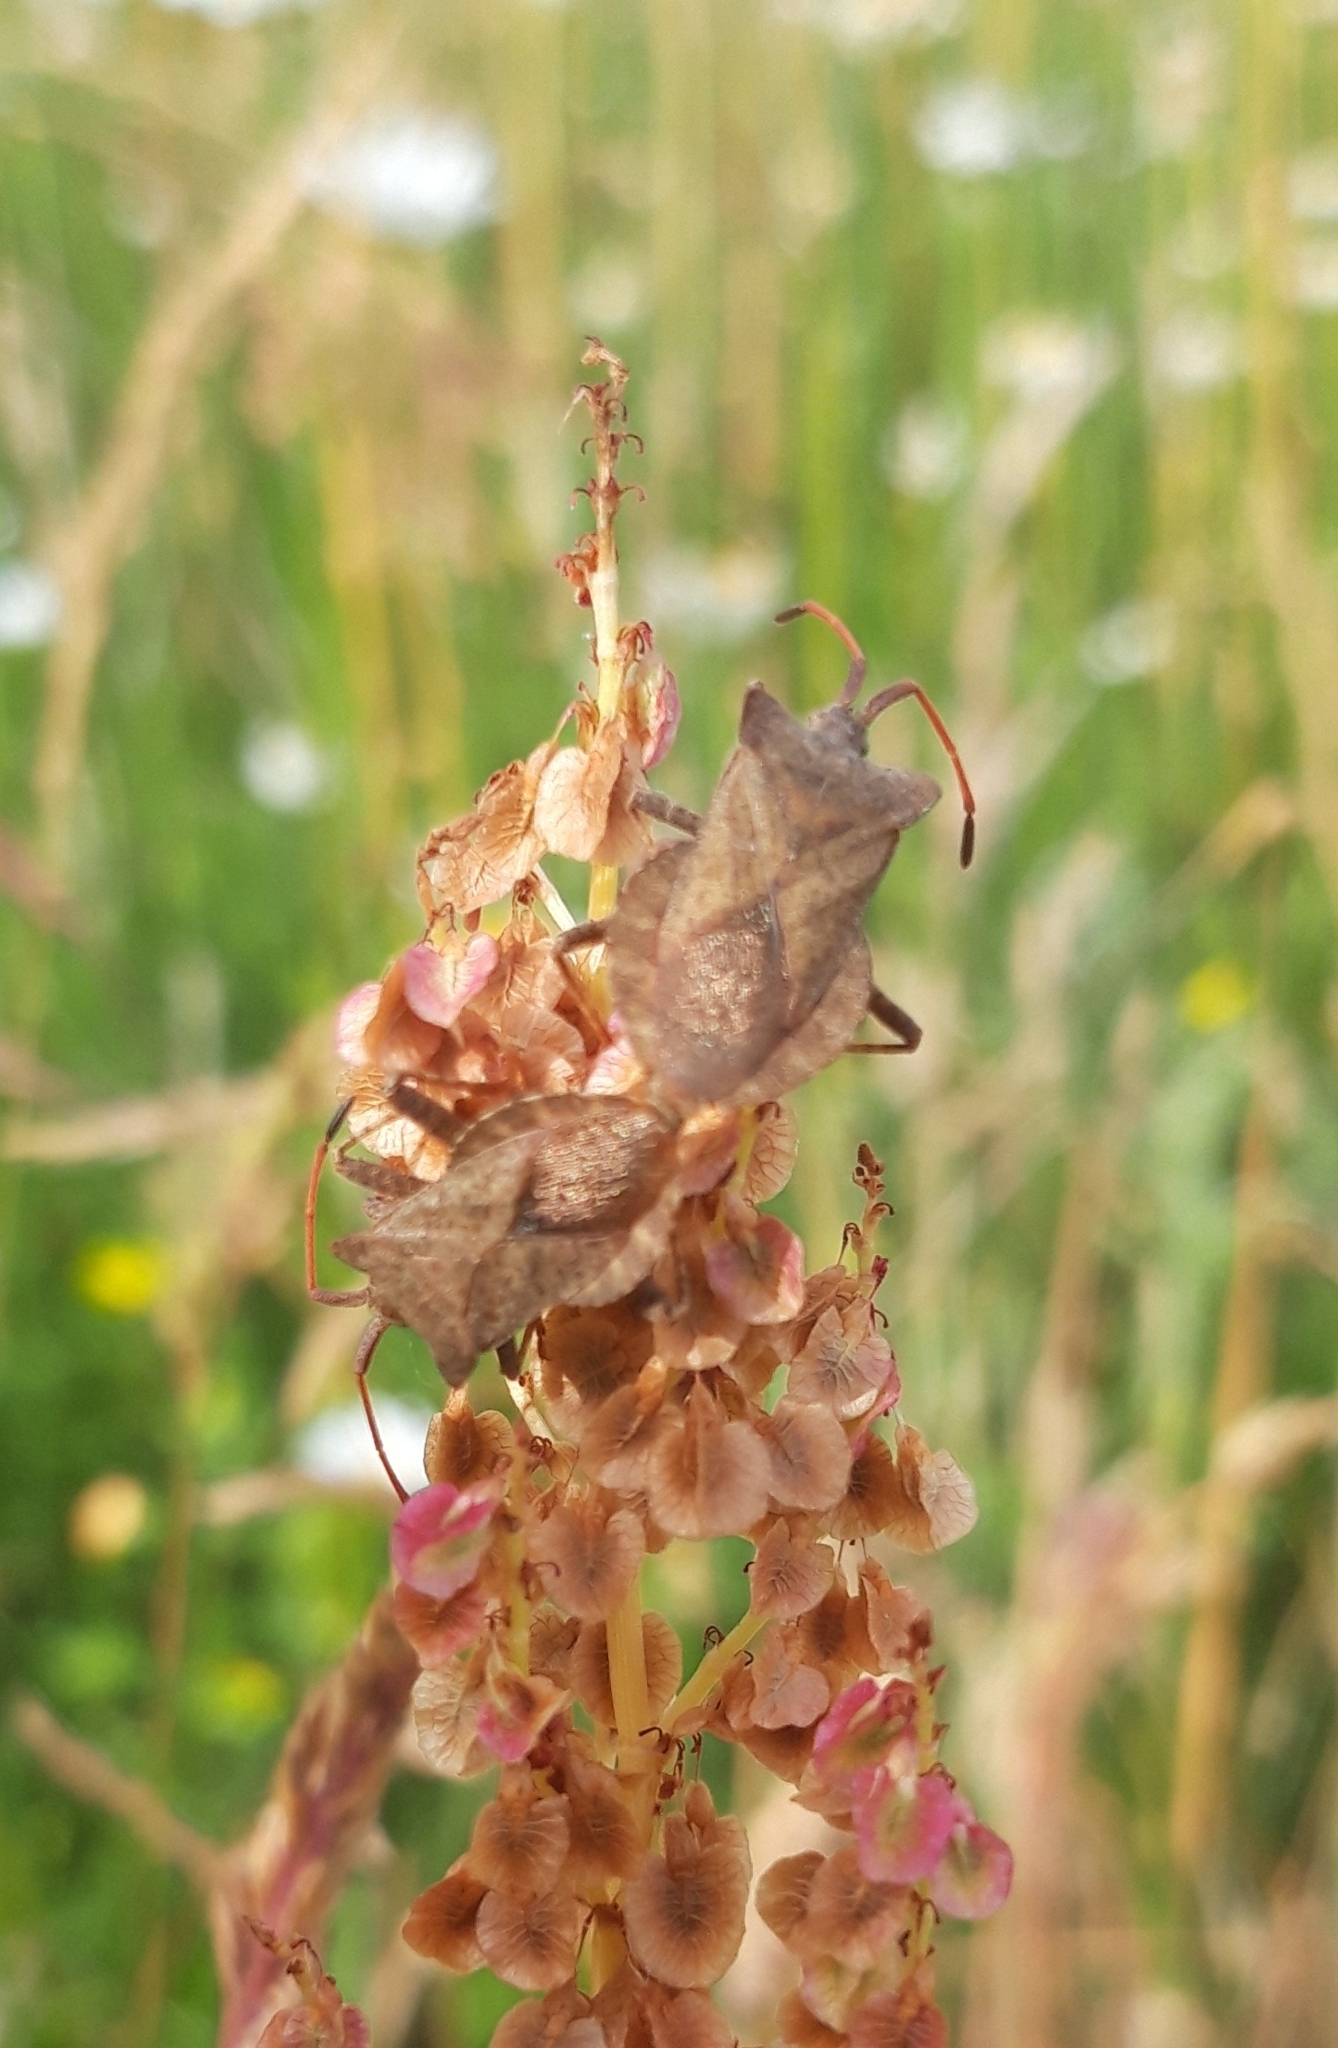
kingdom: Animalia
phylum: Arthropoda
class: Insecta
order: Hemiptera
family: Coreidae
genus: Coreus
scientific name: Coreus marginatus
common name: Dock bug
